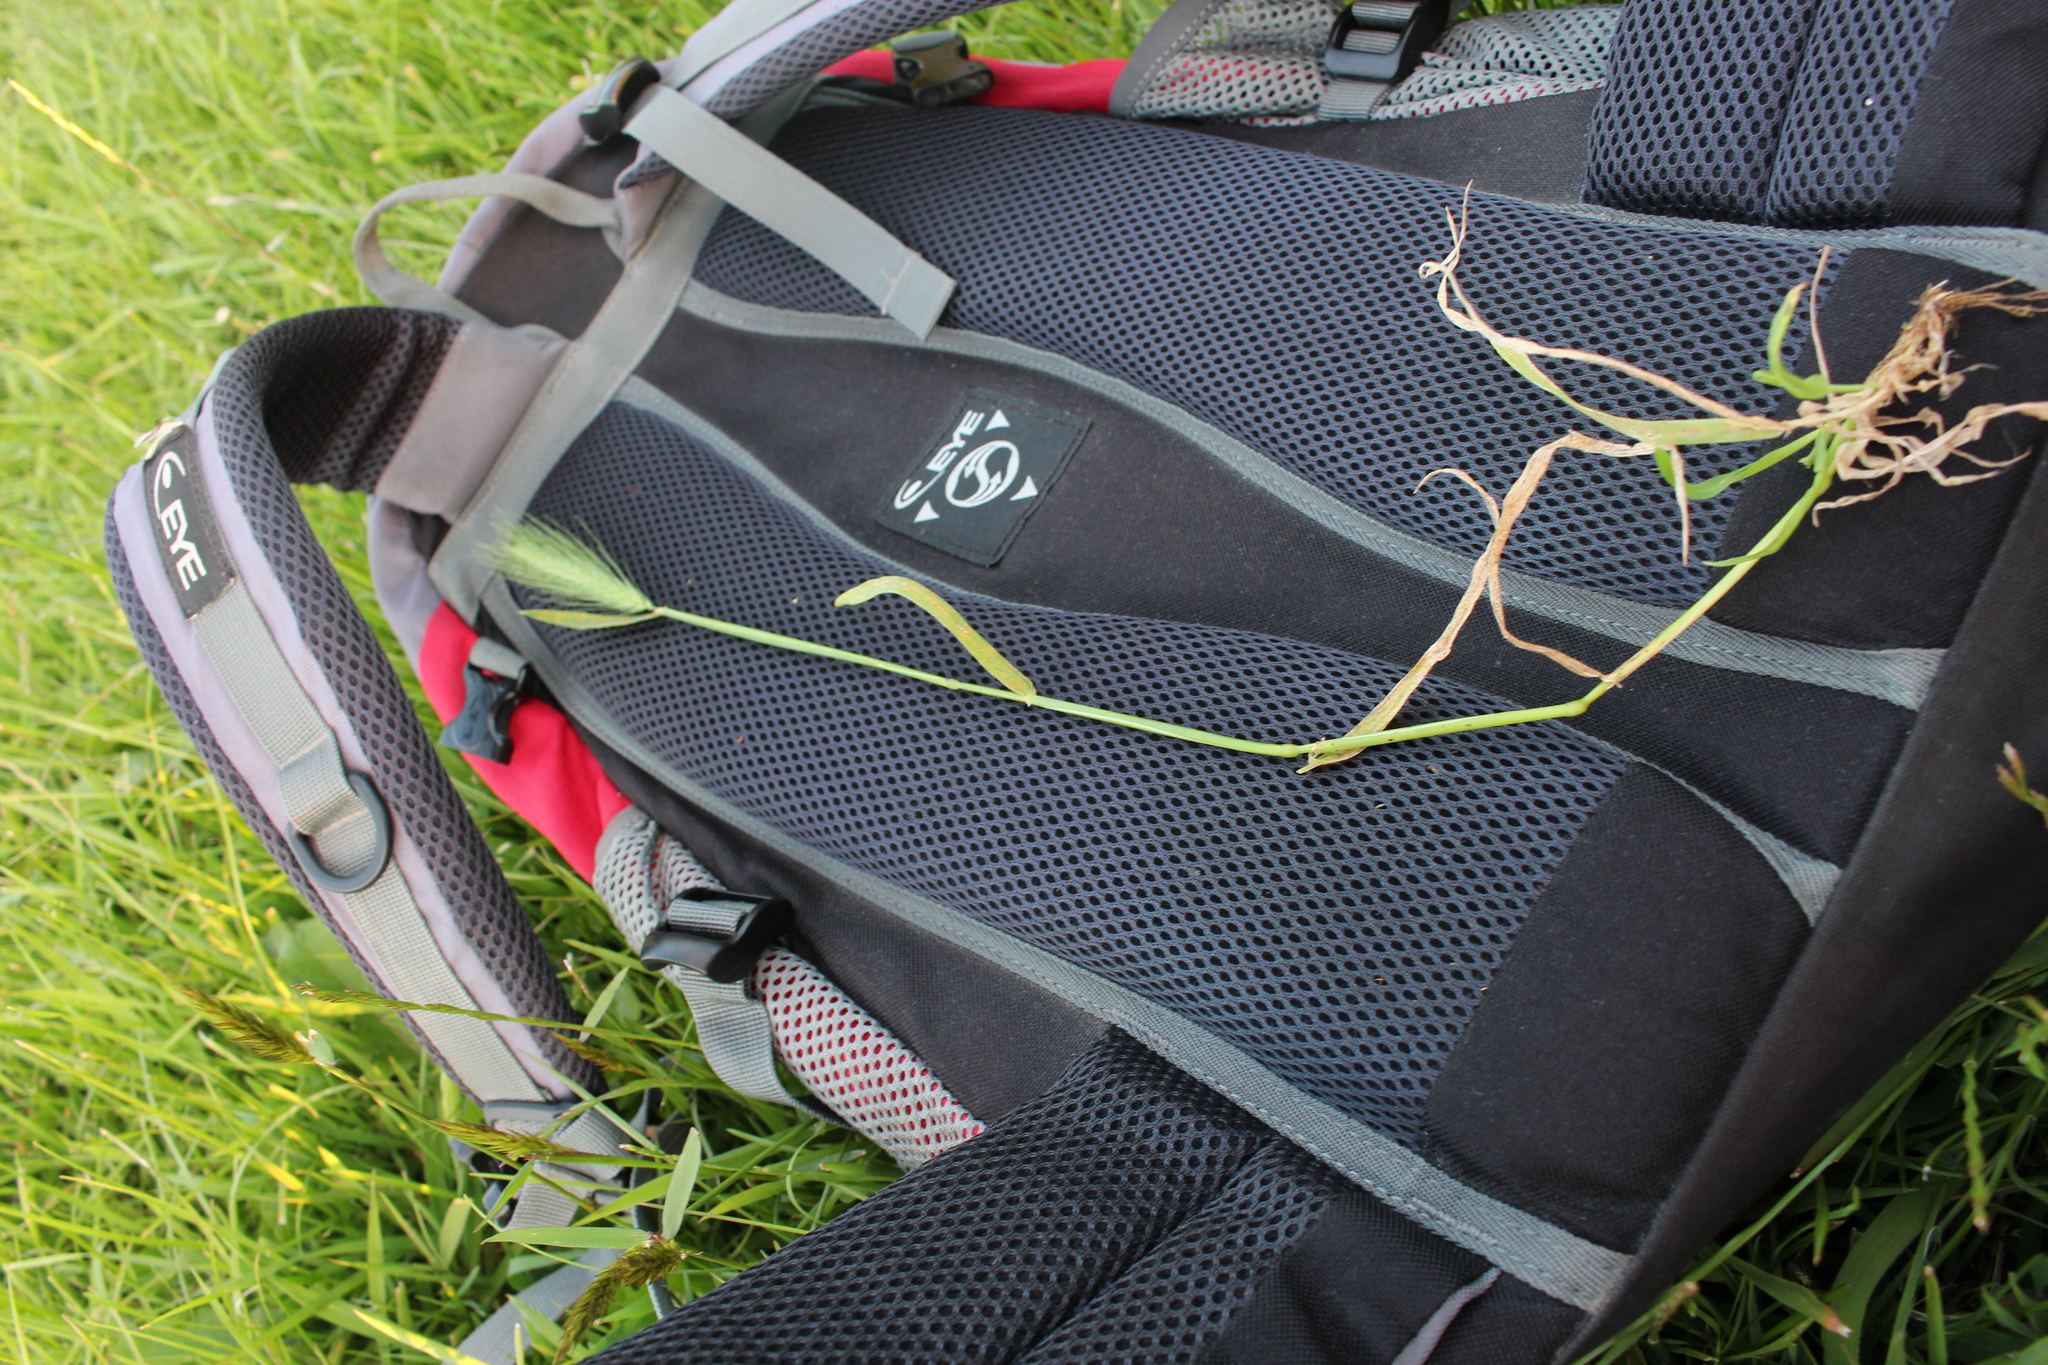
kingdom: Plantae
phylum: Tracheophyta
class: Liliopsida
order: Poales
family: Poaceae
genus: Hordeum
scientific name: Hordeum murinum
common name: Wall barley
